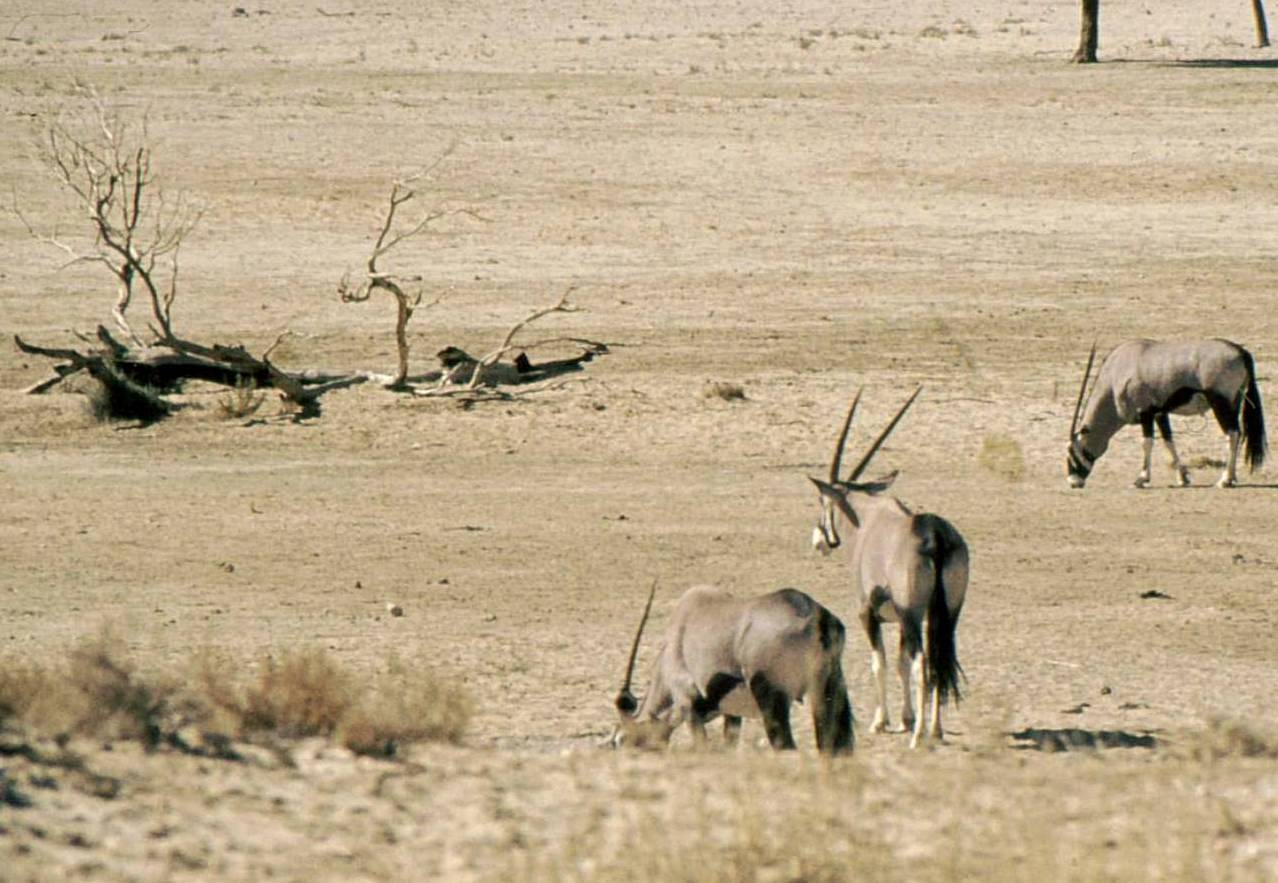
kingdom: Animalia
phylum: Chordata
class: Mammalia
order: Artiodactyla
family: Bovidae
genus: Oryx
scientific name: Oryx gazella
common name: Gemsbok
